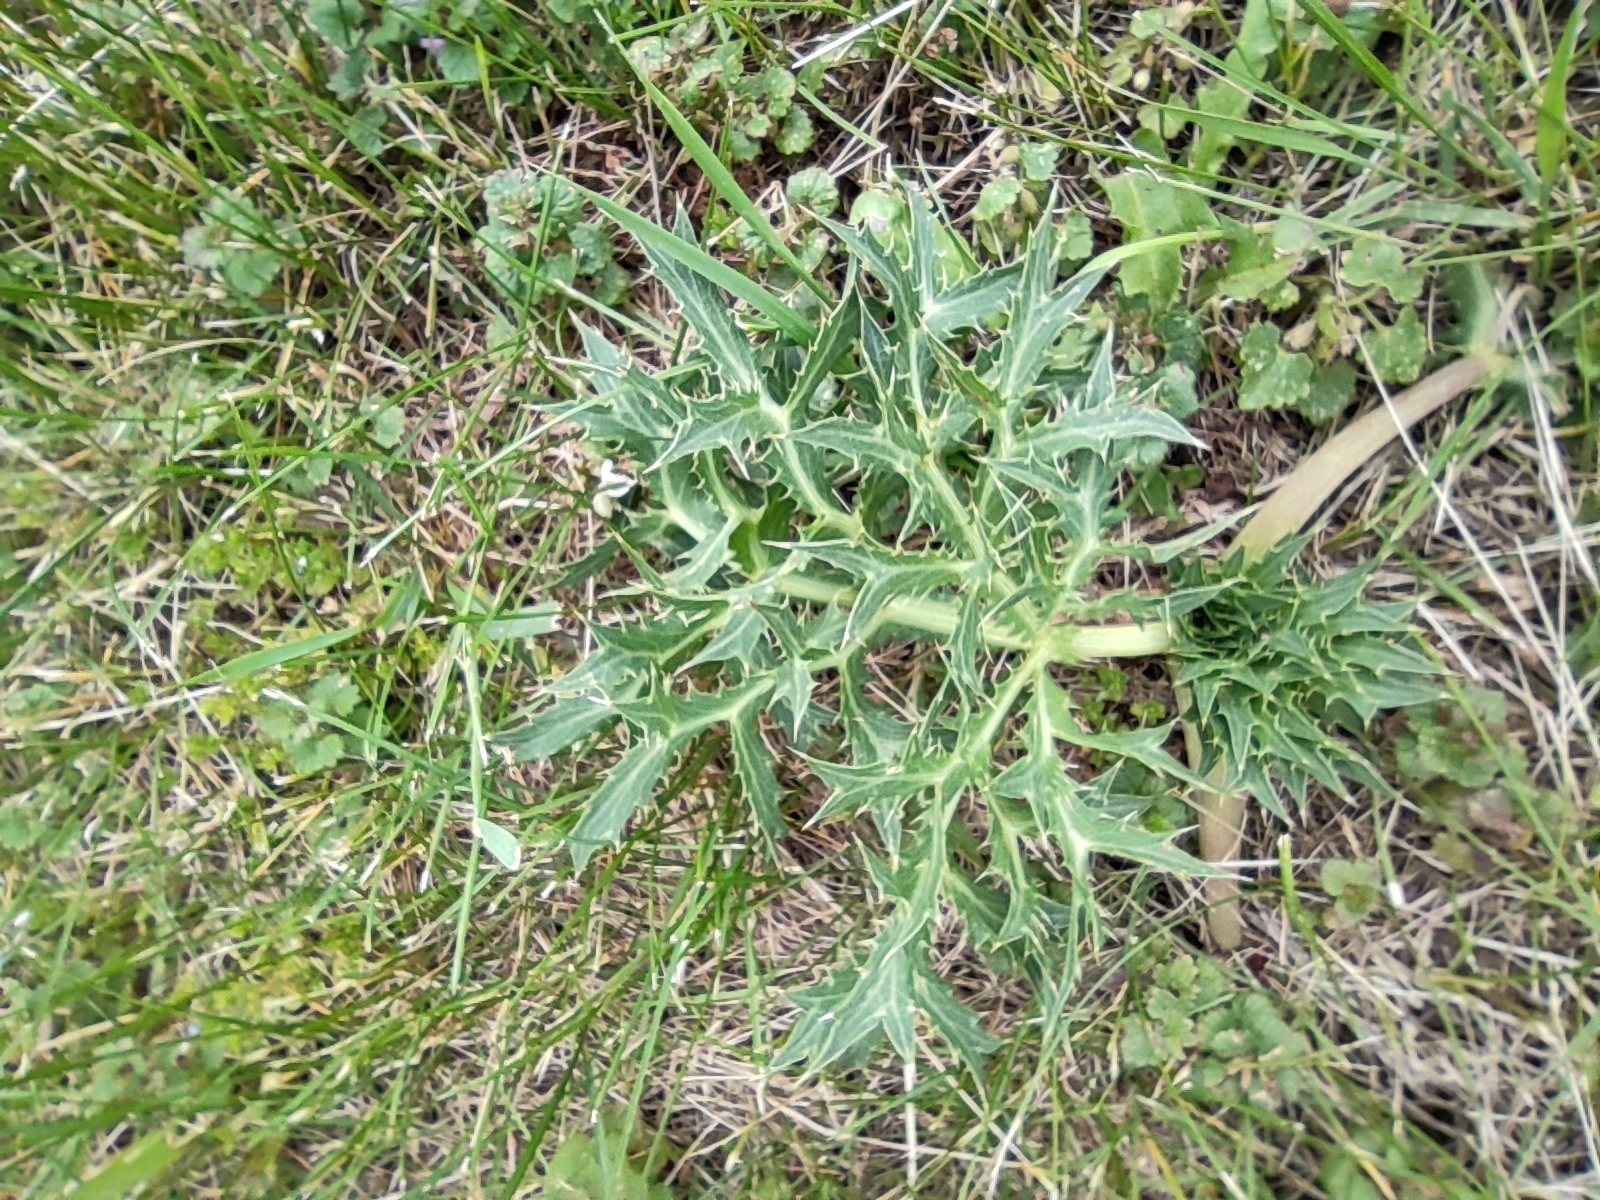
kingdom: Plantae
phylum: Tracheophyta
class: Magnoliopsida
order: Apiales
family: Apiaceae
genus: Eryngium
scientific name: Eryngium campestre
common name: Field eryngo
